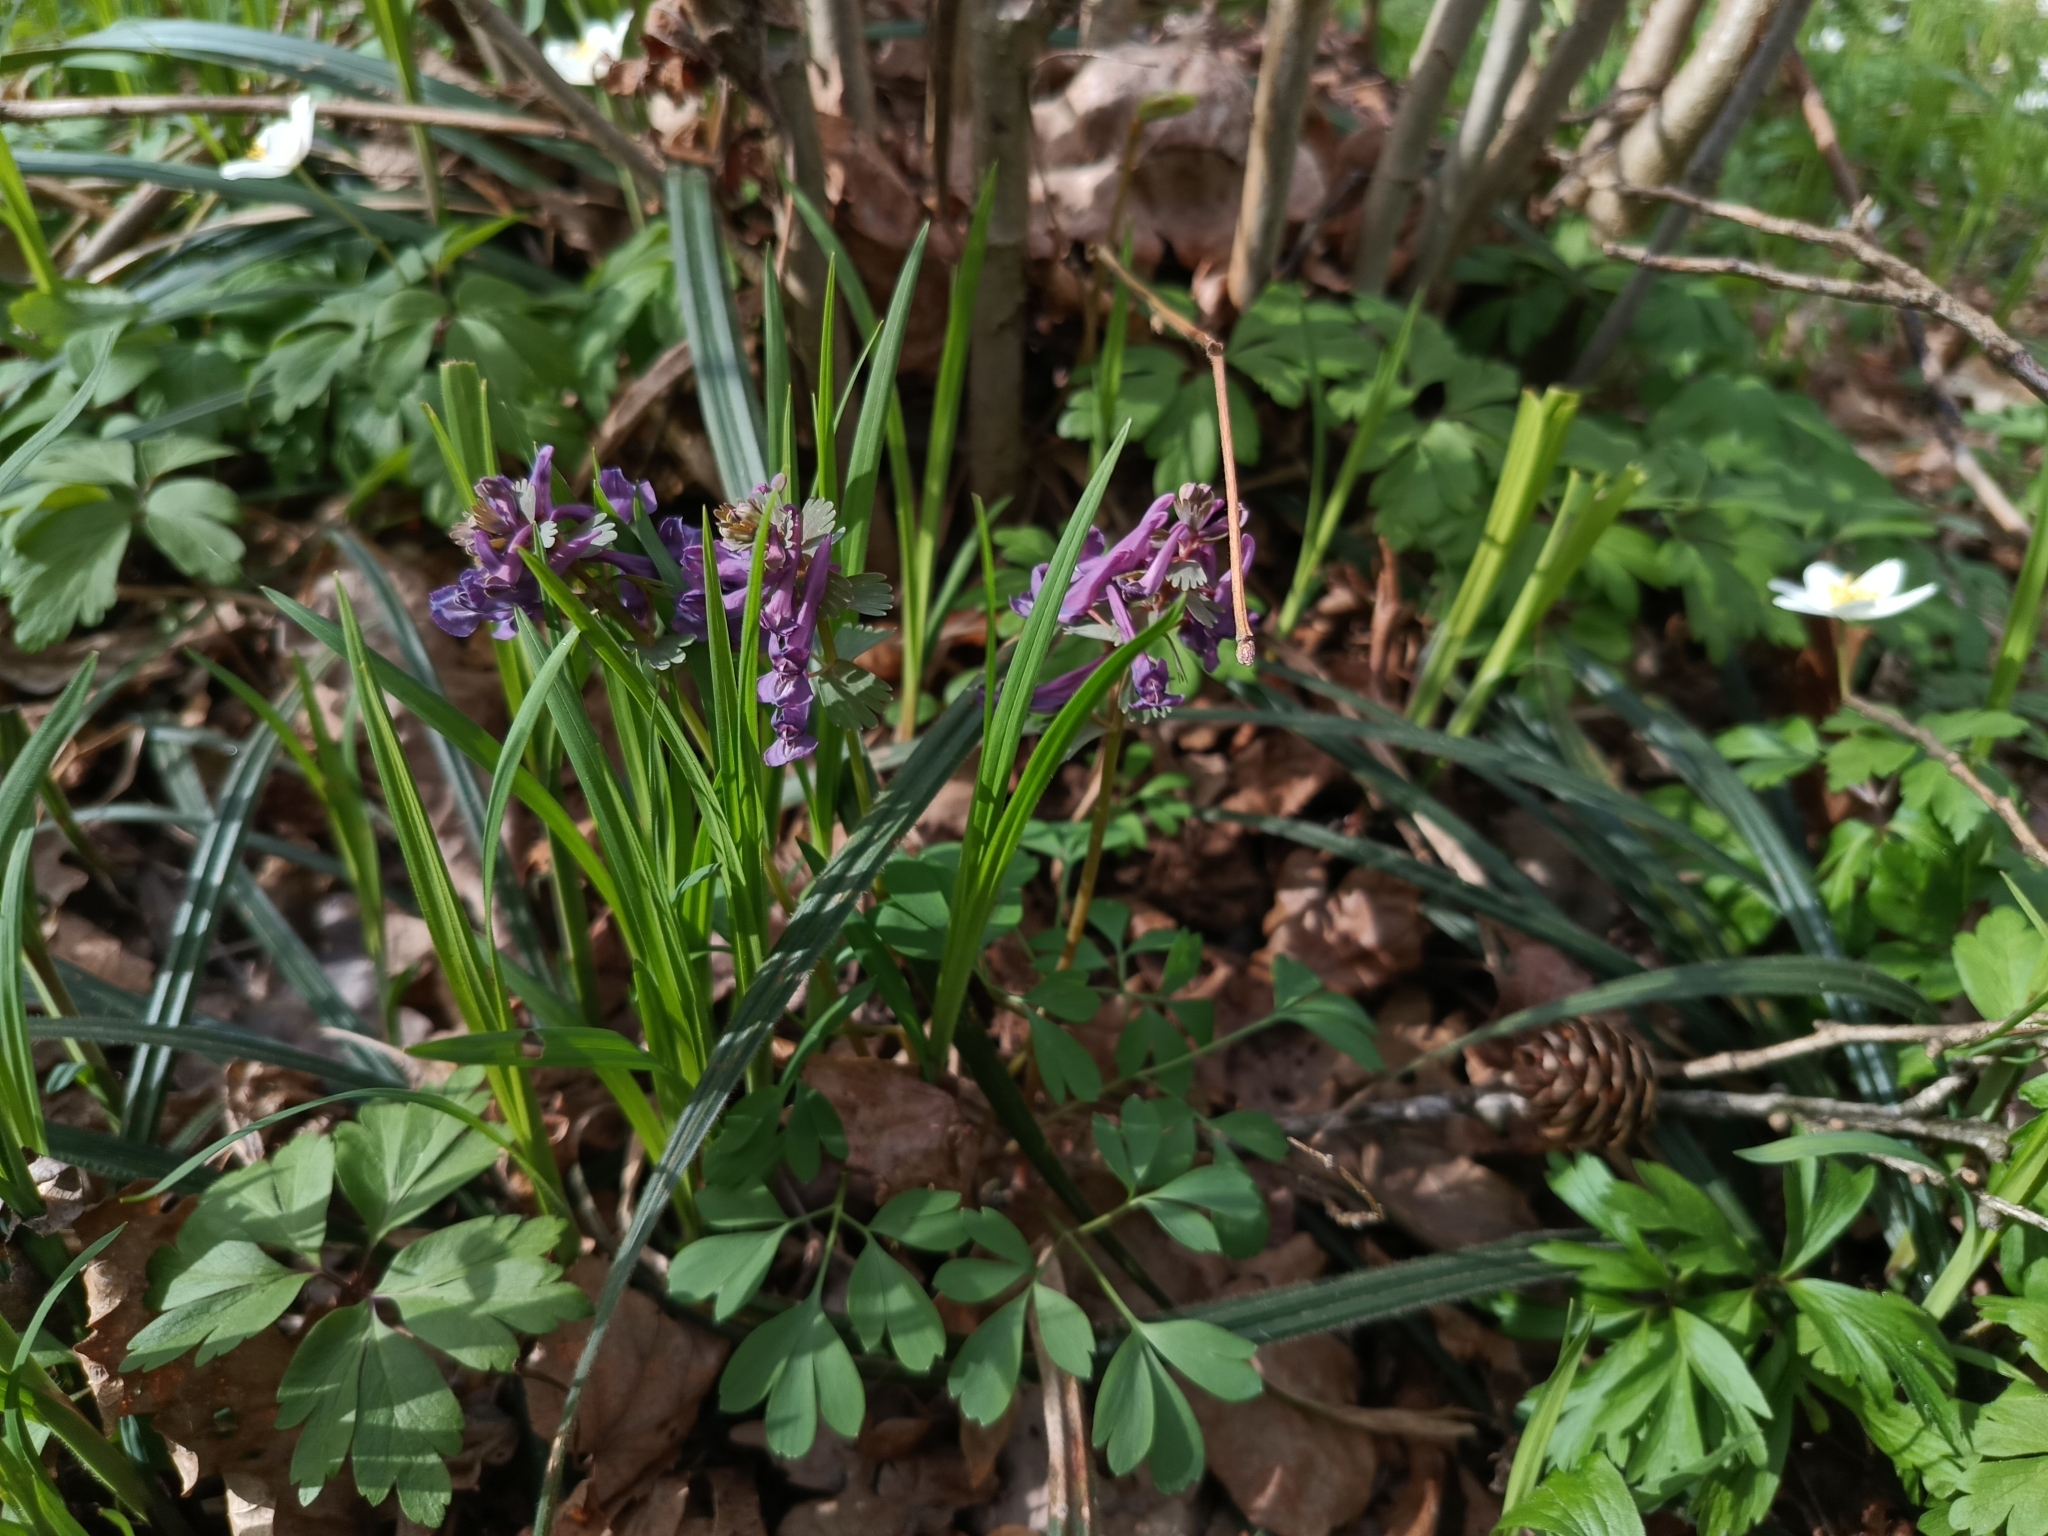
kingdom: Plantae
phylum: Tracheophyta
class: Magnoliopsida
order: Ranunculales
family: Papaveraceae
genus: Corydalis
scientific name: Corydalis solida
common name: Bird-in-a-bush
